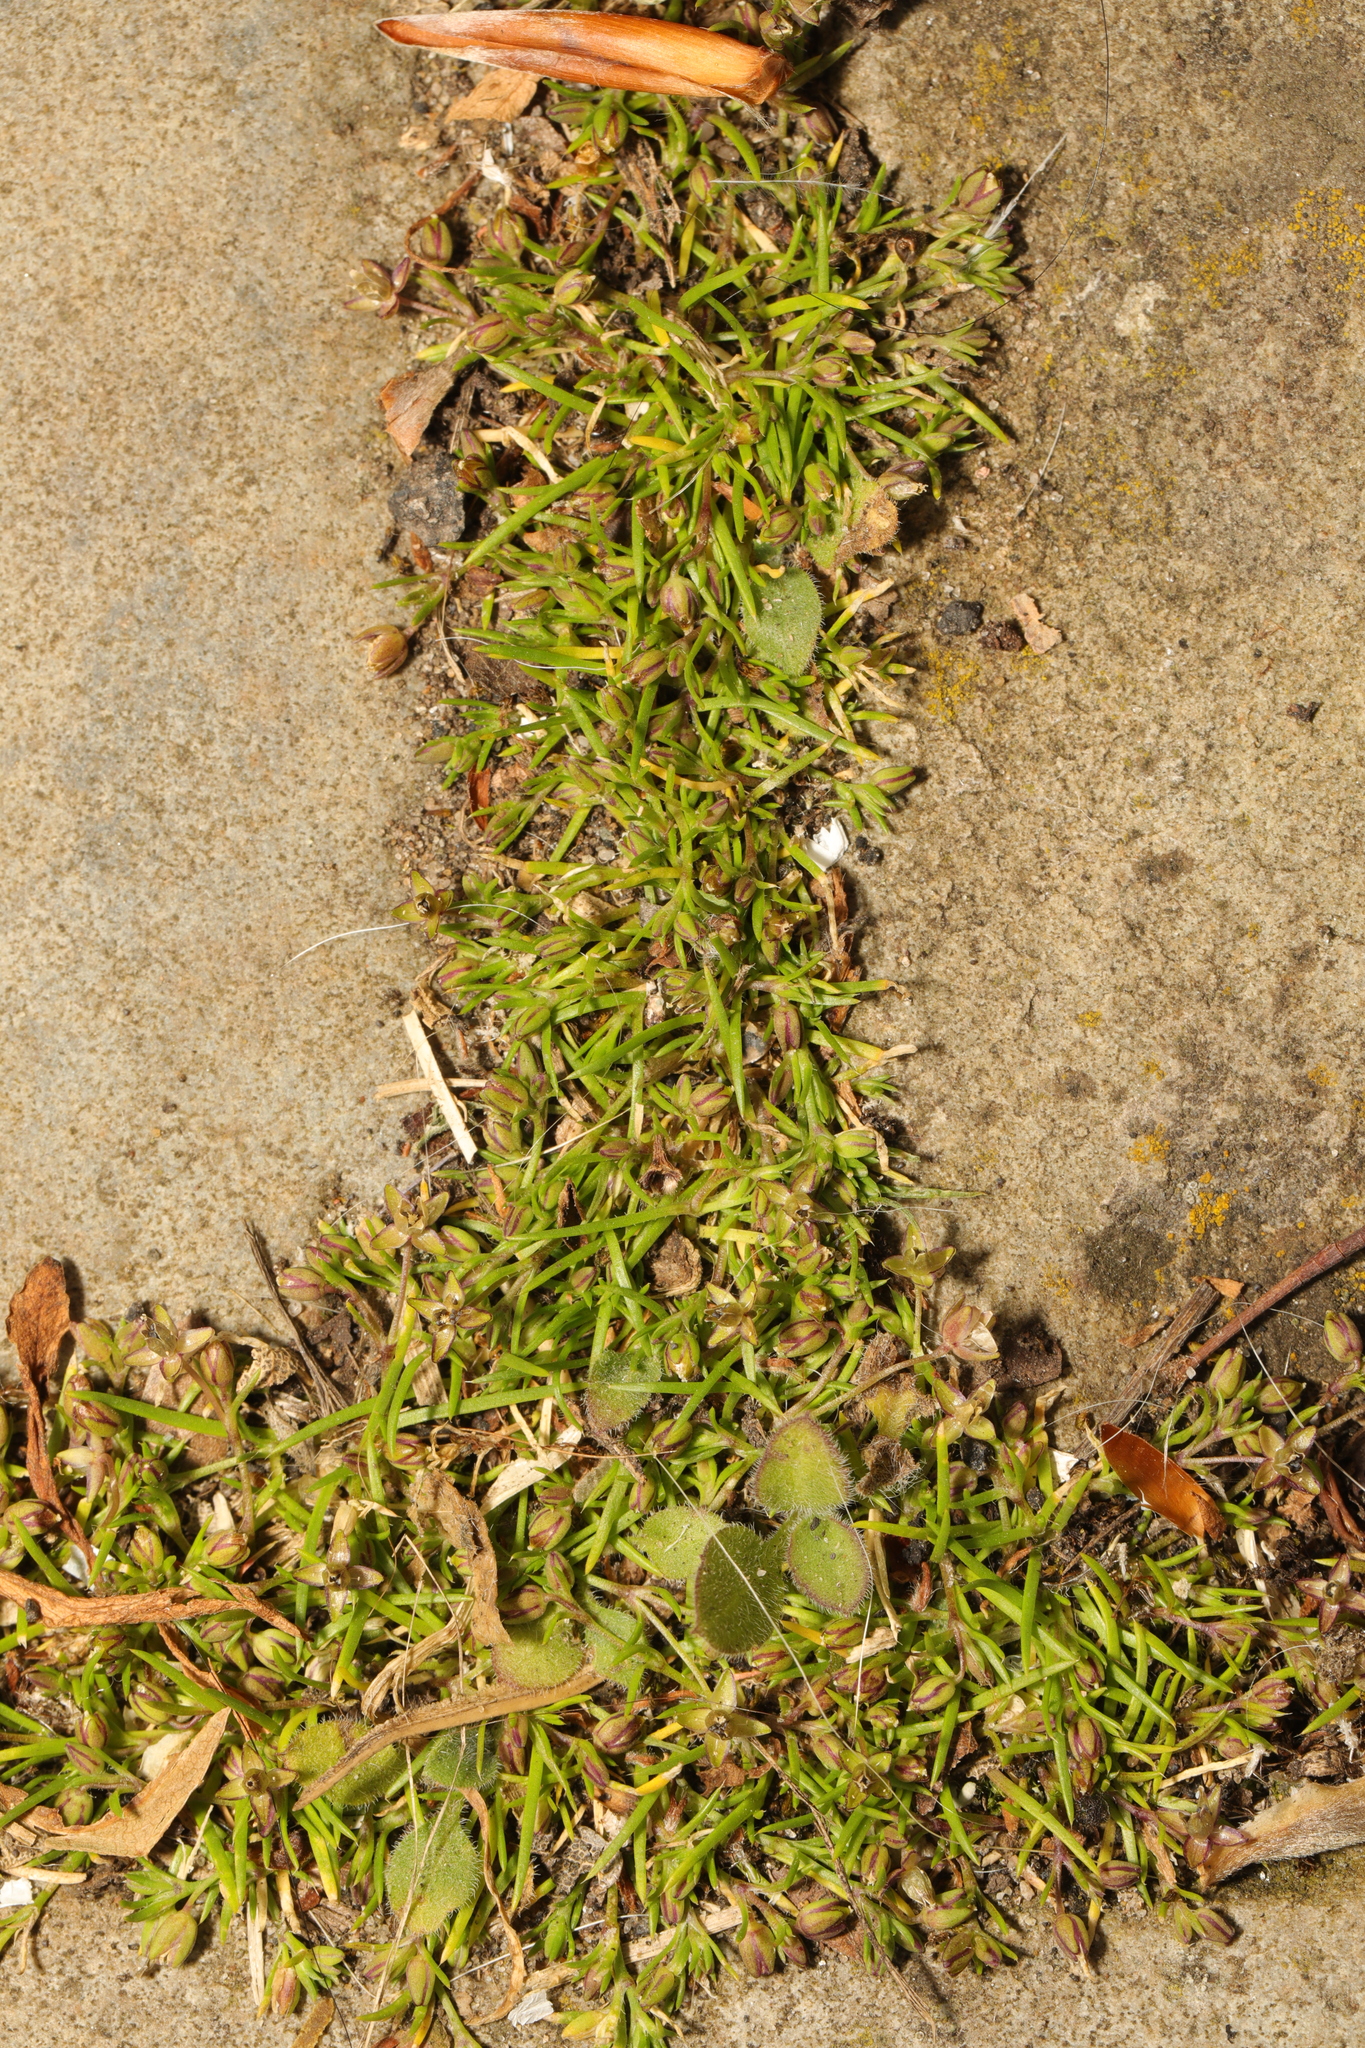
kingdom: Plantae
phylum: Tracheophyta
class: Magnoliopsida
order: Caryophyllales
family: Caryophyllaceae
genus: Sagina
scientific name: Sagina procumbens
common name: Procumbent pearlwort
